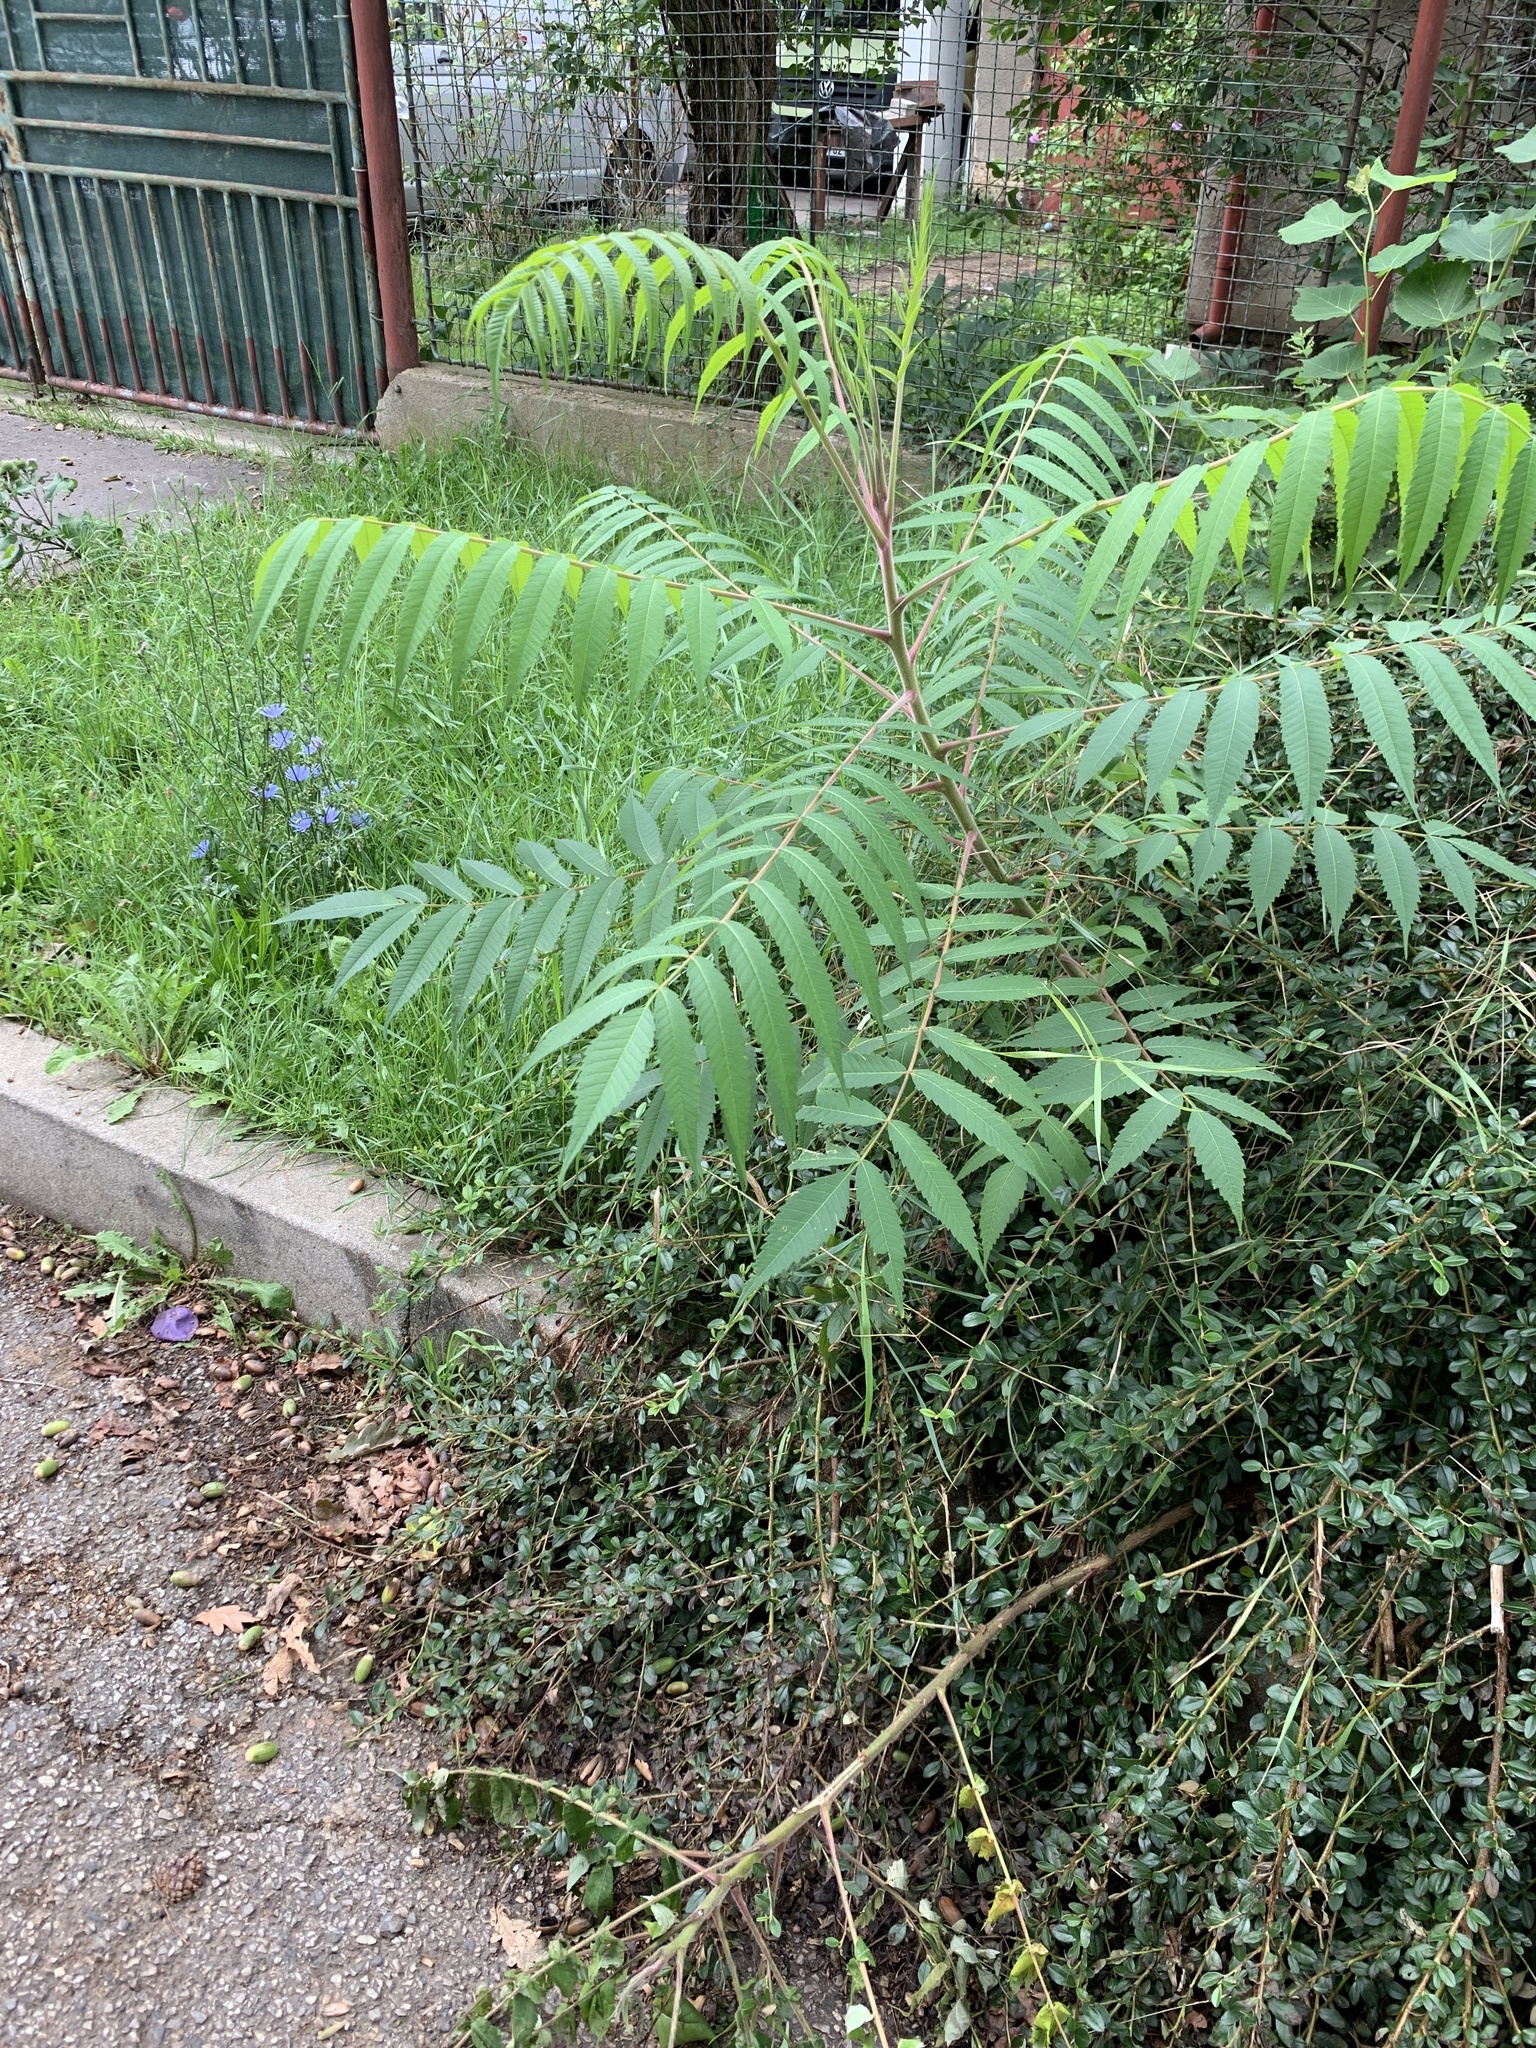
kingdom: Plantae
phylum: Tracheophyta
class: Magnoliopsida
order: Sapindales
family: Anacardiaceae
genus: Rhus
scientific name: Rhus typhina
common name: Staghorn sumac
